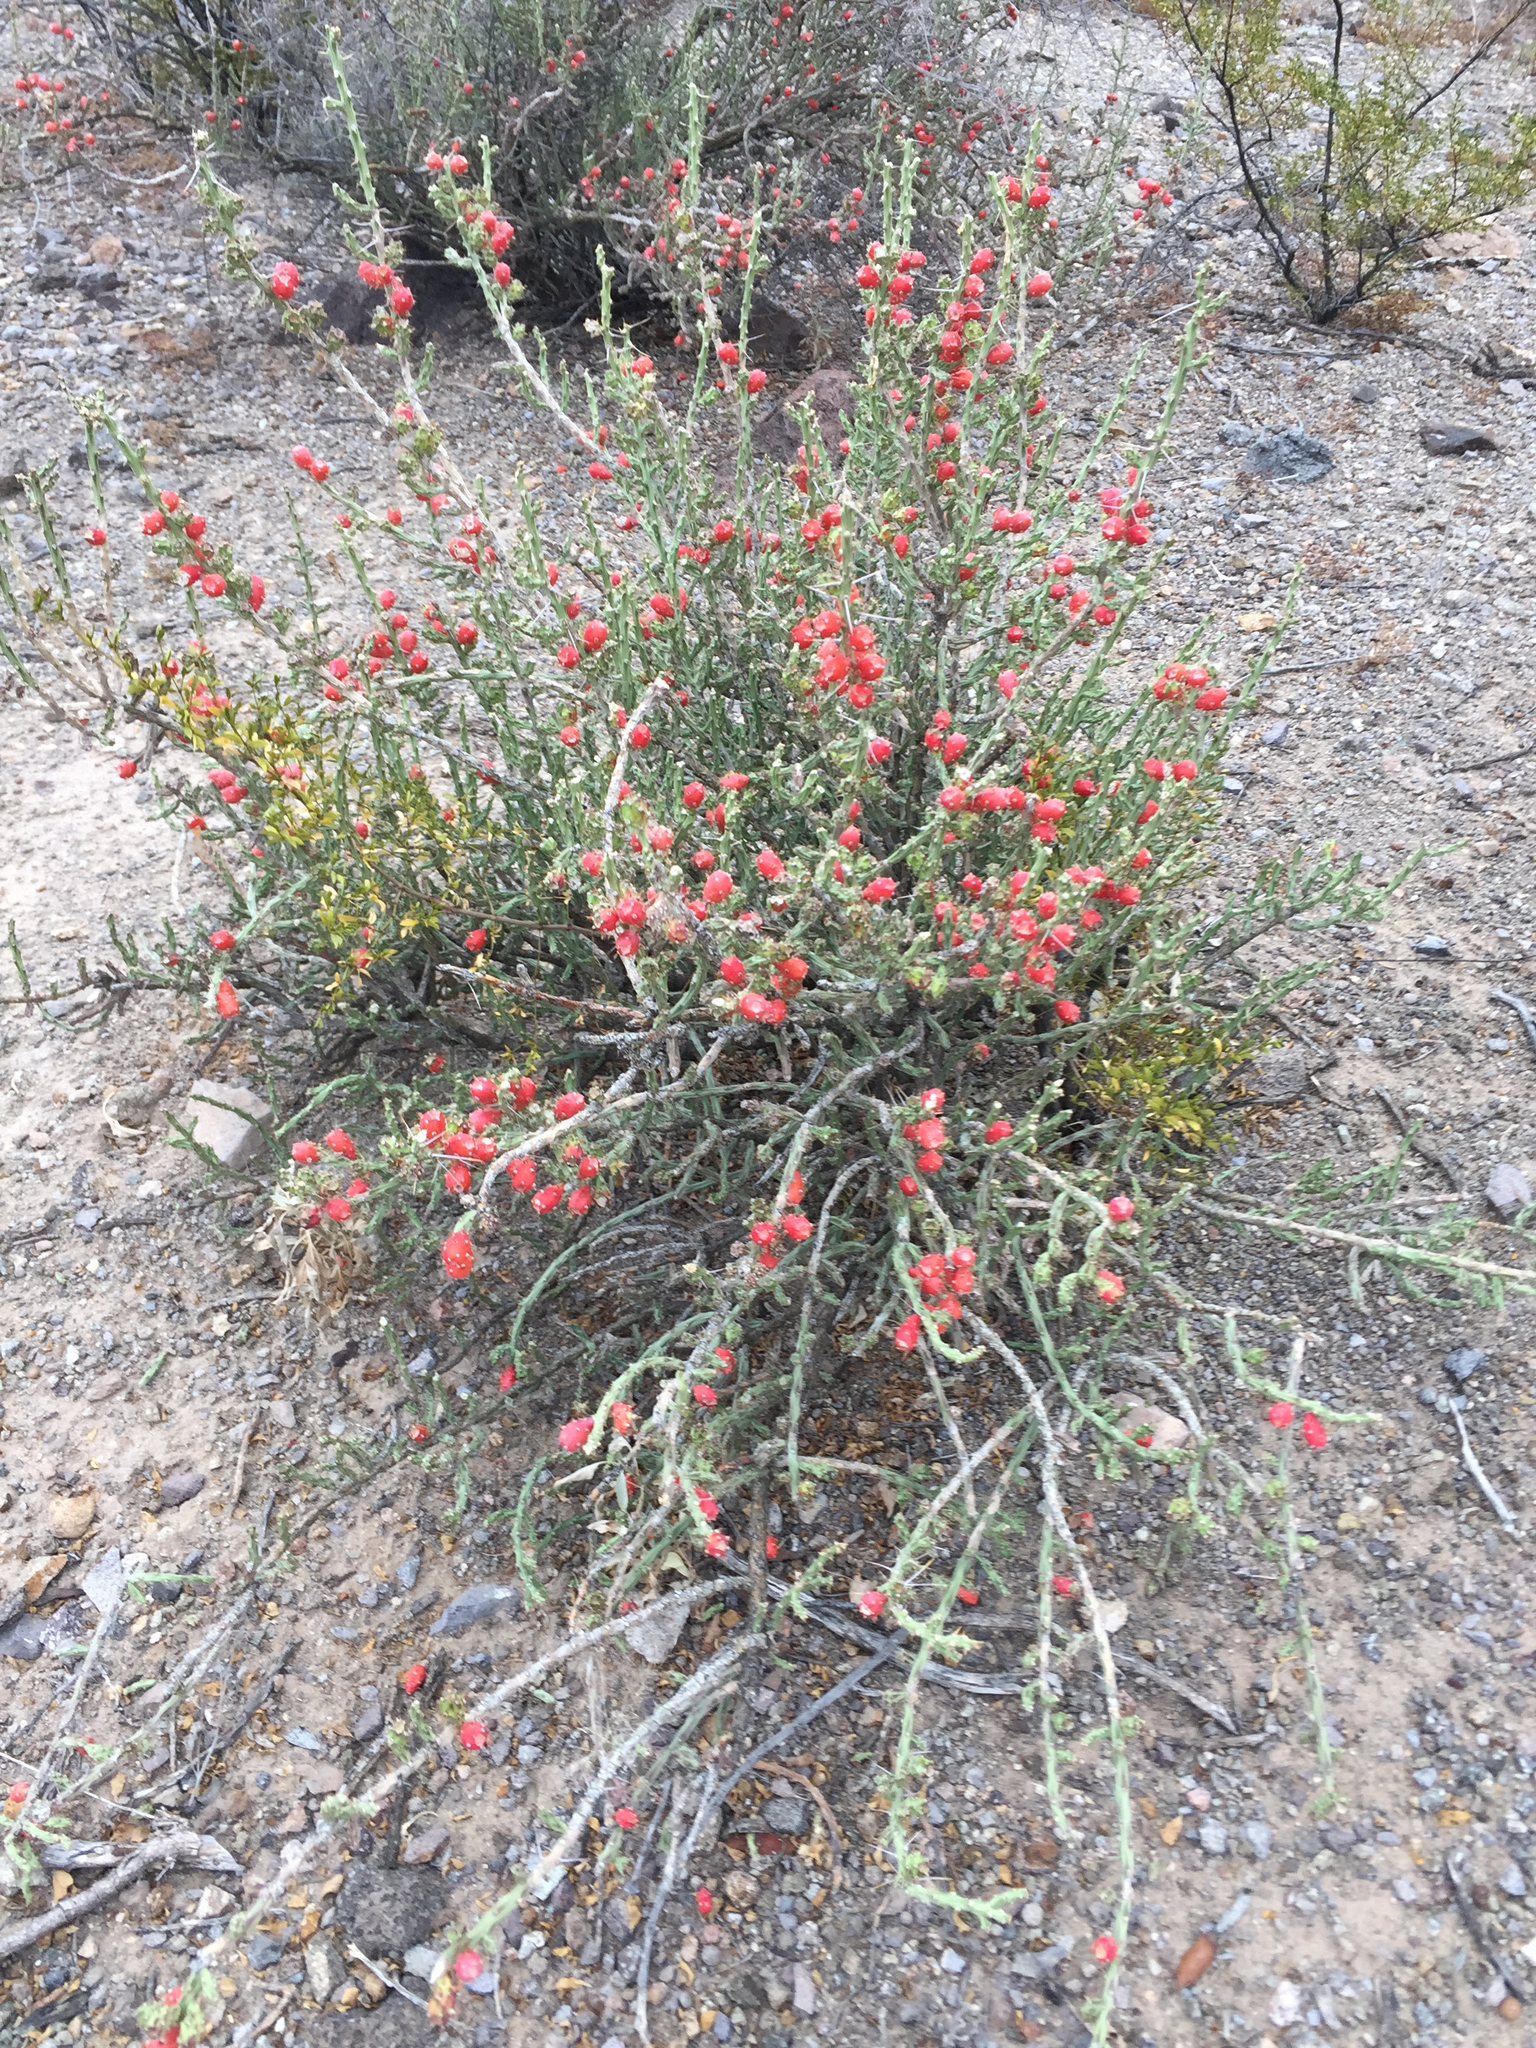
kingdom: Plantae
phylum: Tracheophyta
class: Magnoliopsida
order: Caryophyllales
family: Cactaceae
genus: Cylindropuntia
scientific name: Cylindropuntia leptocaulis
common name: Christmas cactus
